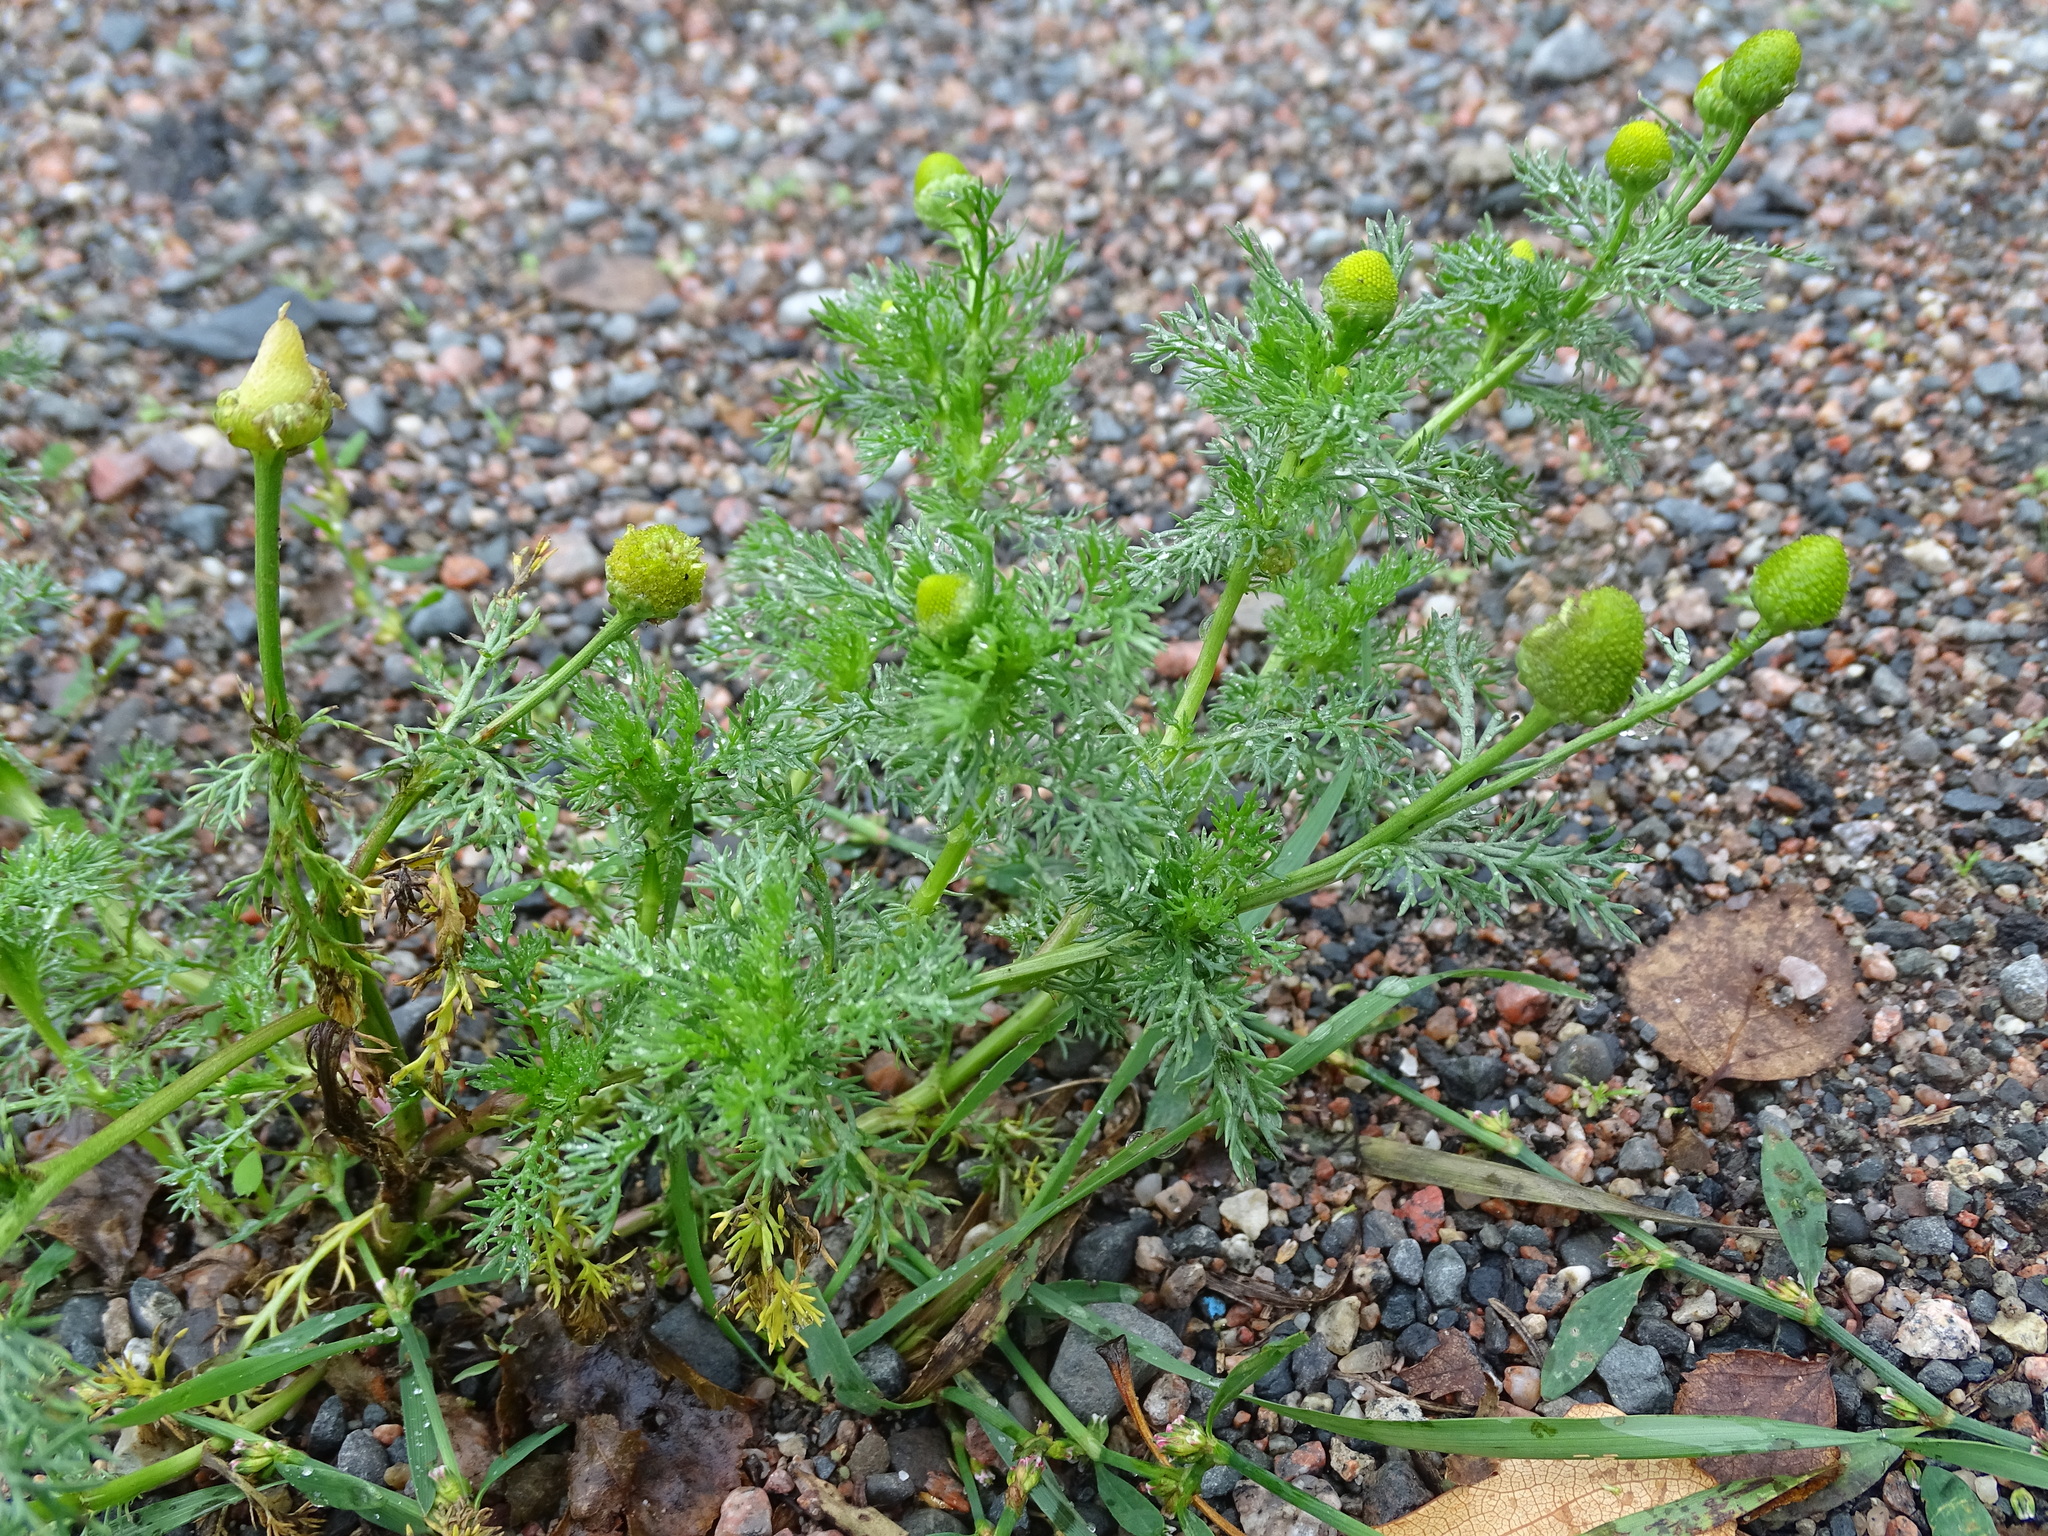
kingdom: Plantae
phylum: Tracheophyta
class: Magnoliopsida
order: Asterales
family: Asteraceae
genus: Matricaria
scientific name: Matricaria discoidea
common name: Disc mayweed
